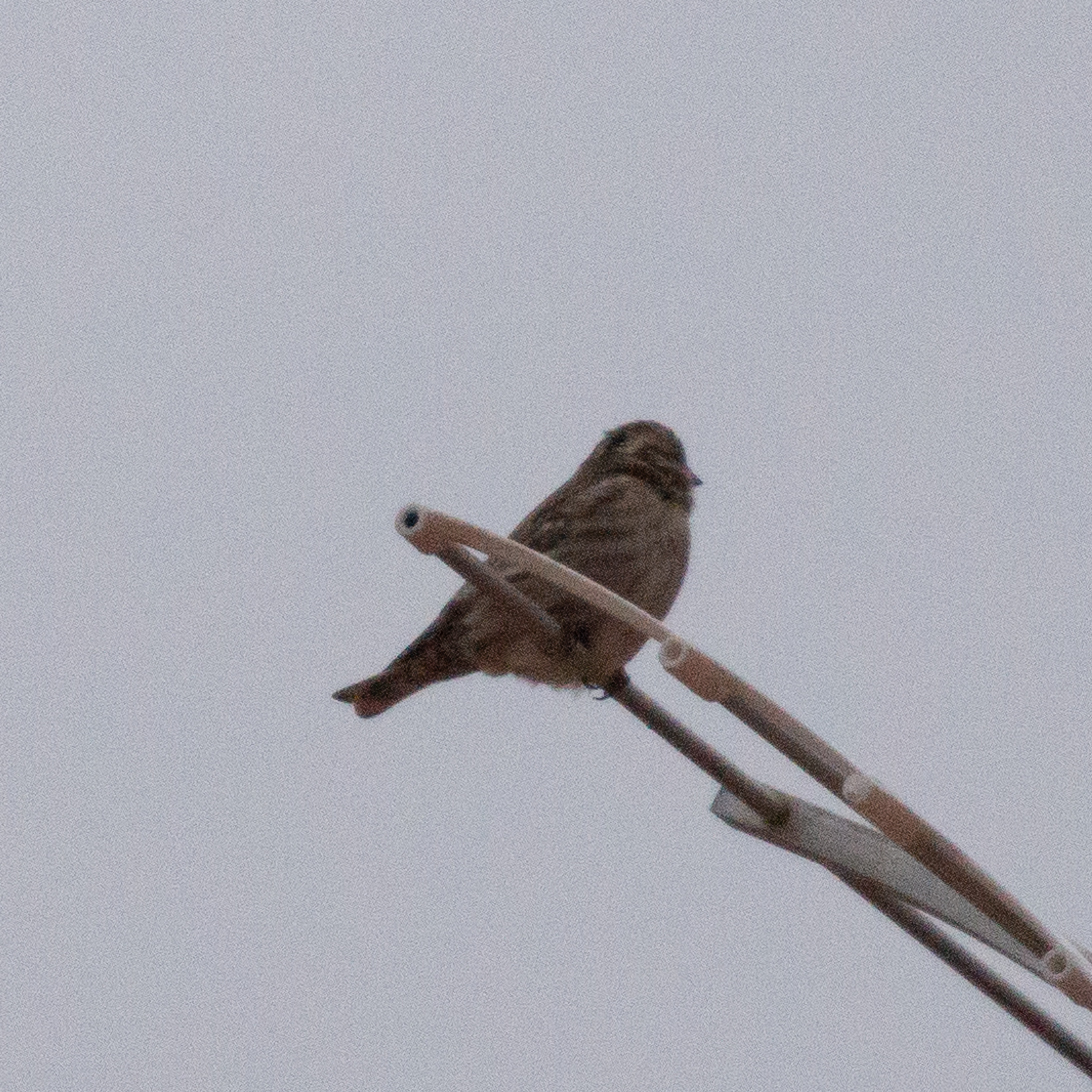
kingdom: Animalia
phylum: Chordata
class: Aves
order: Passeriformes
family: Passeridae
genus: Petronia
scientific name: Petronia petronia
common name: Rock sparrow
